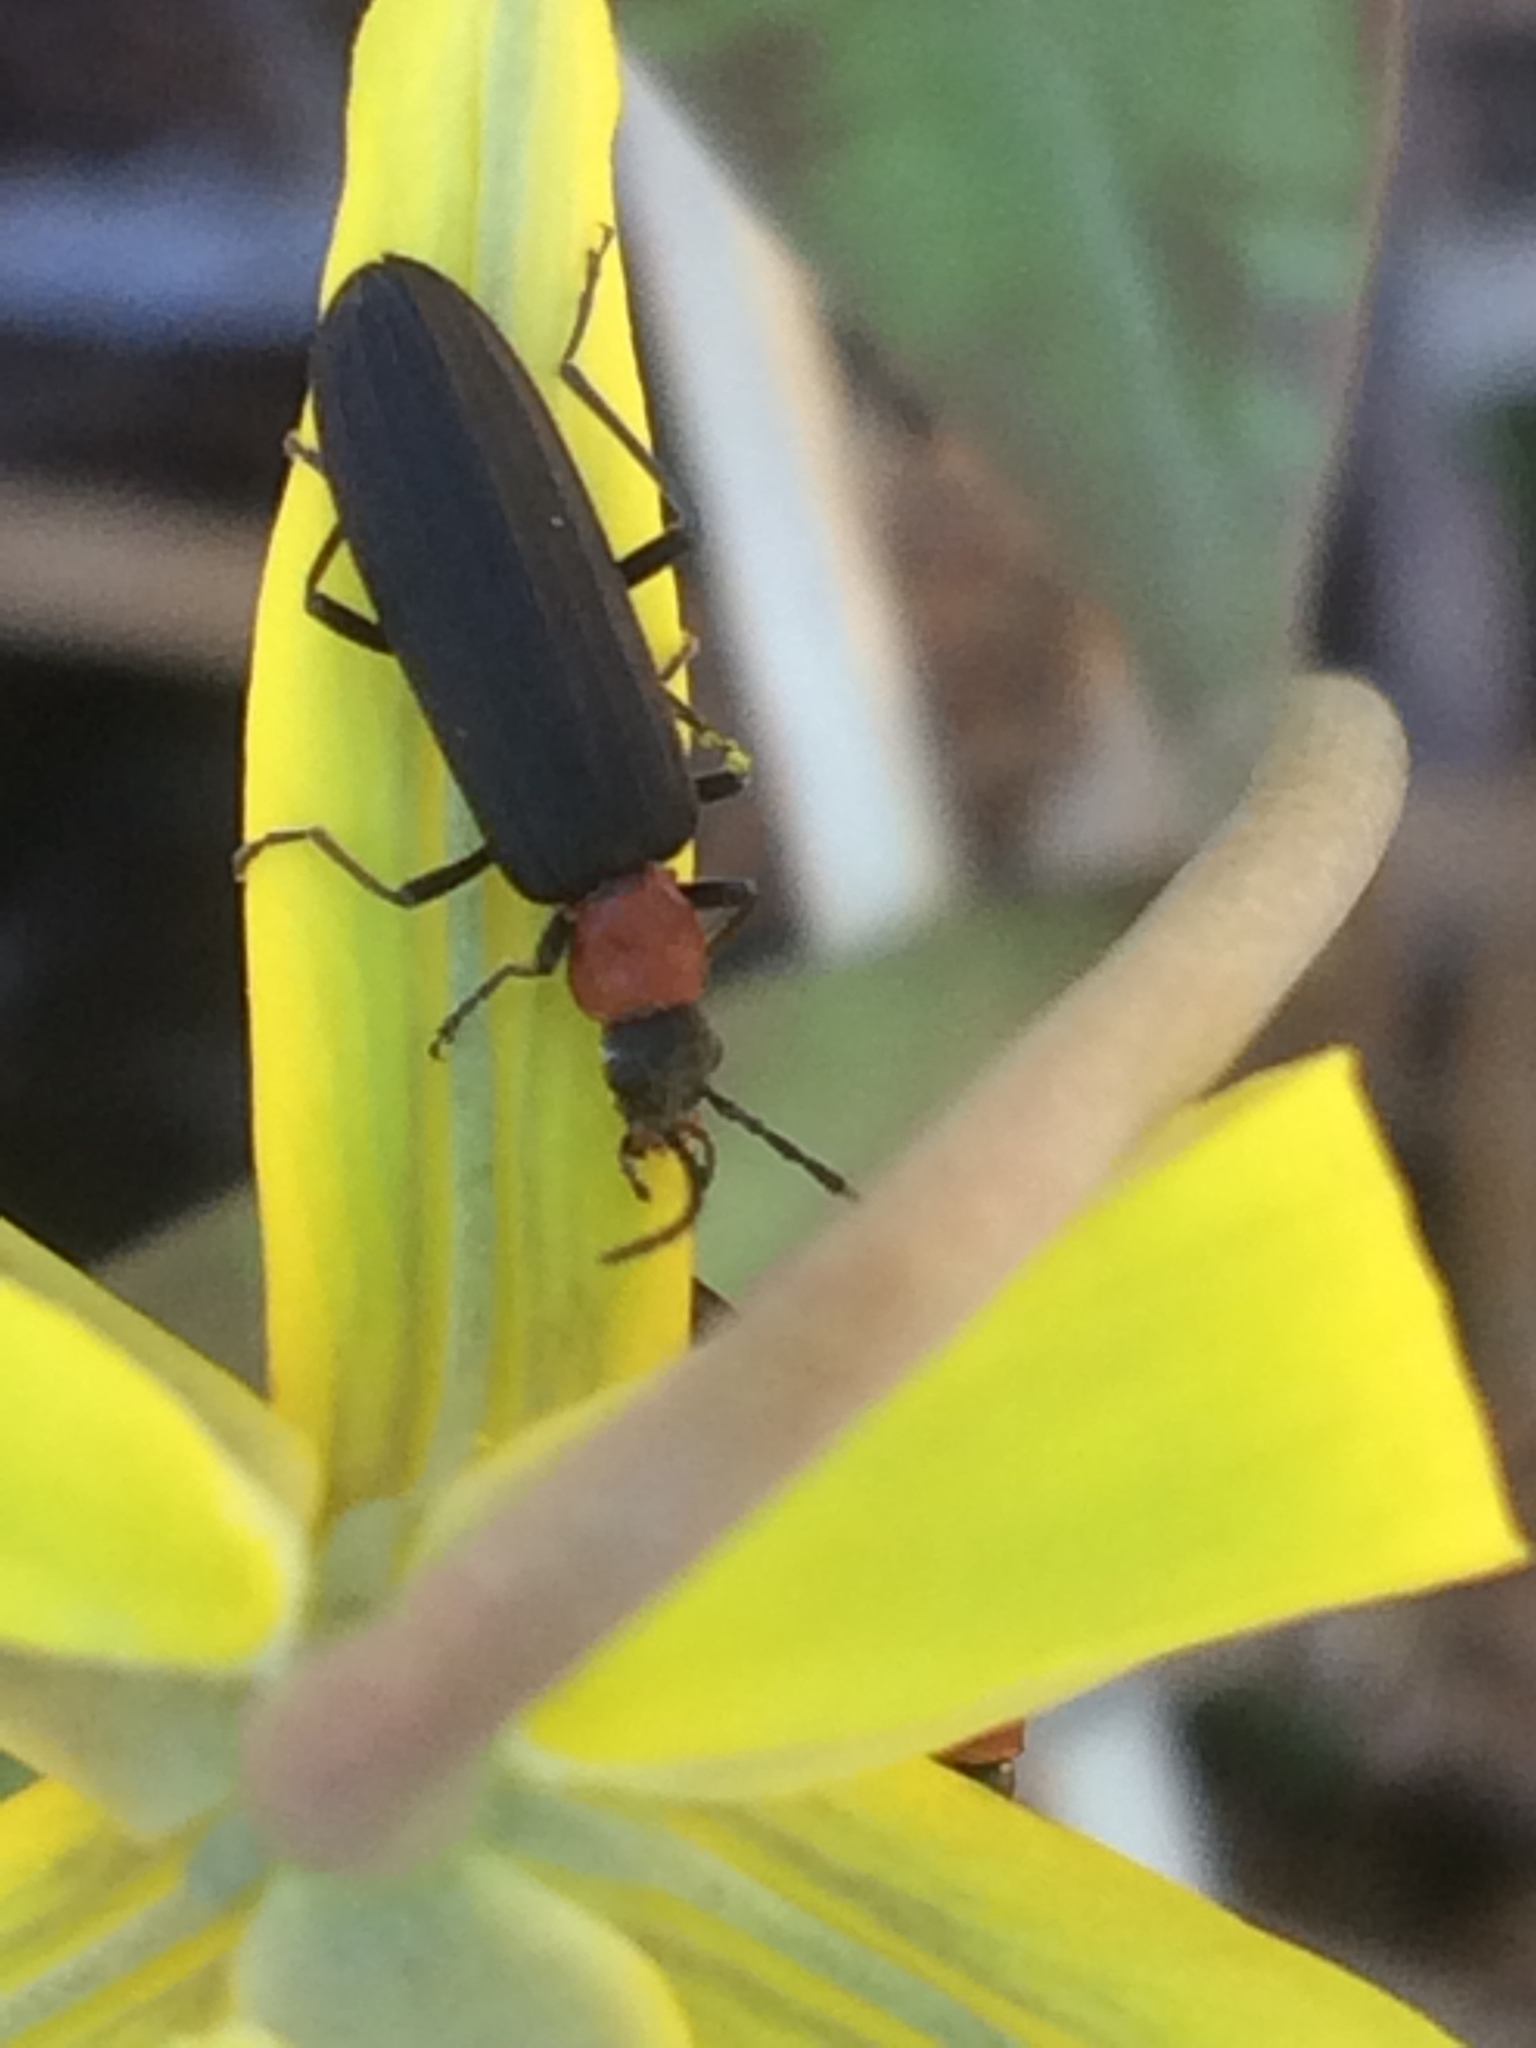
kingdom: Animalia
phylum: Arthropoda
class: Insecta
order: Coleoptera
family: Oedemeridae
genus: Ischnomera
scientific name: Ischnomera
